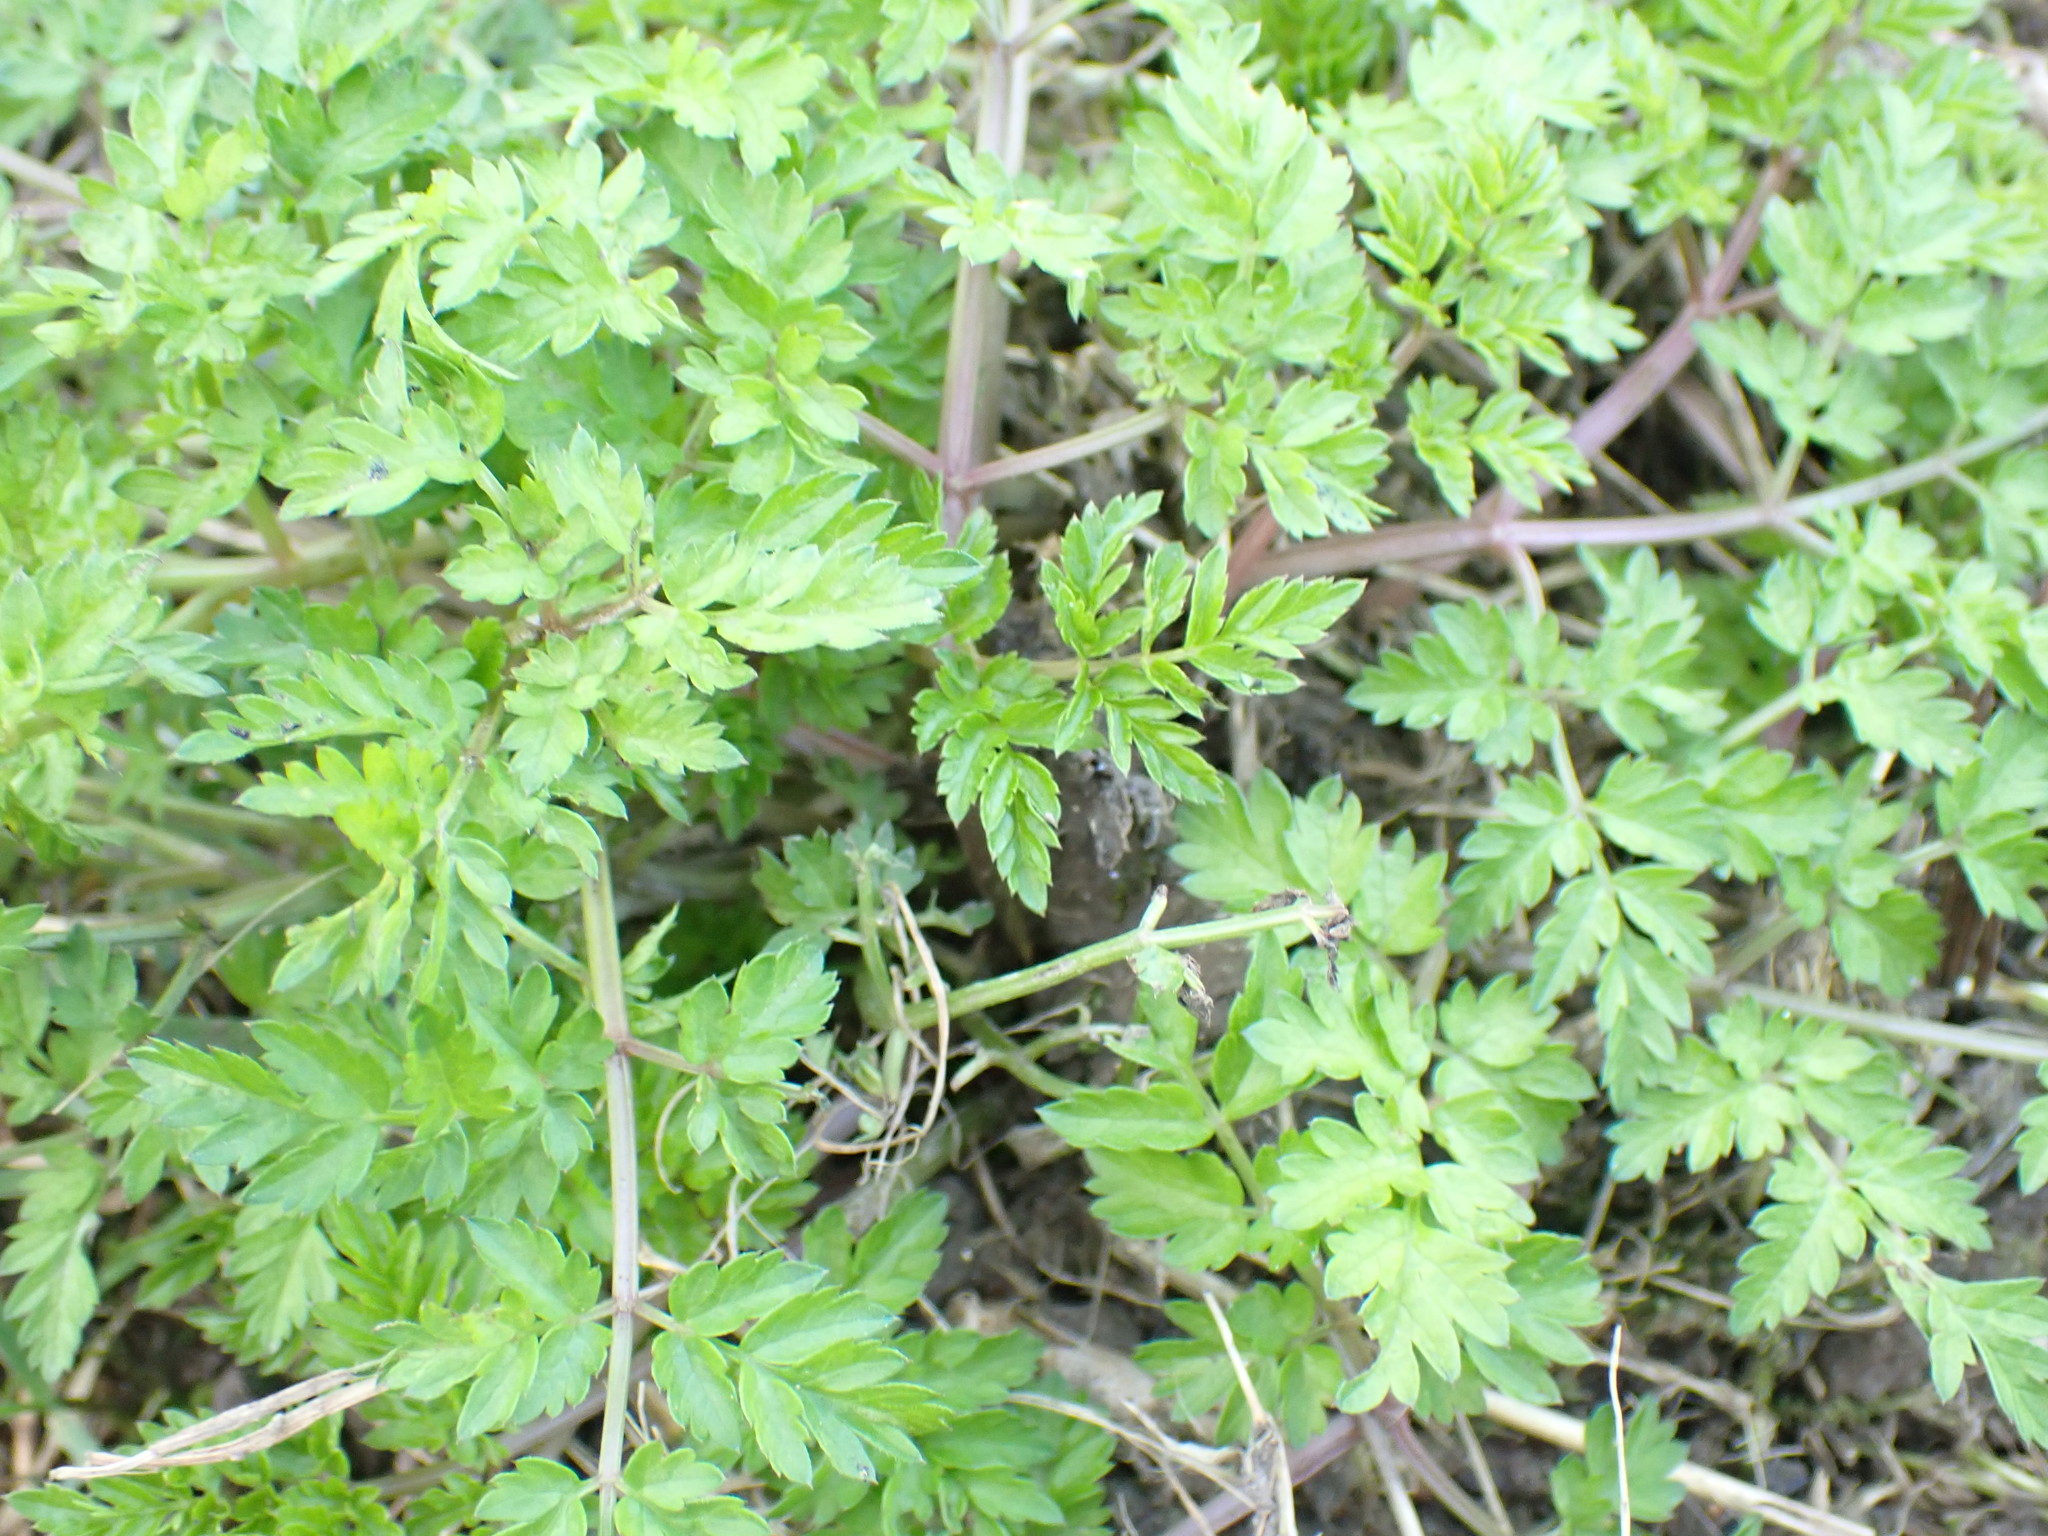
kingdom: Plantae
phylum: Tracheophyta
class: Magnoliopsida
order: Apiales
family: Apiaceae
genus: Anthriscus
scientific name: Anthriscus sylvestris
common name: Cow parsley
